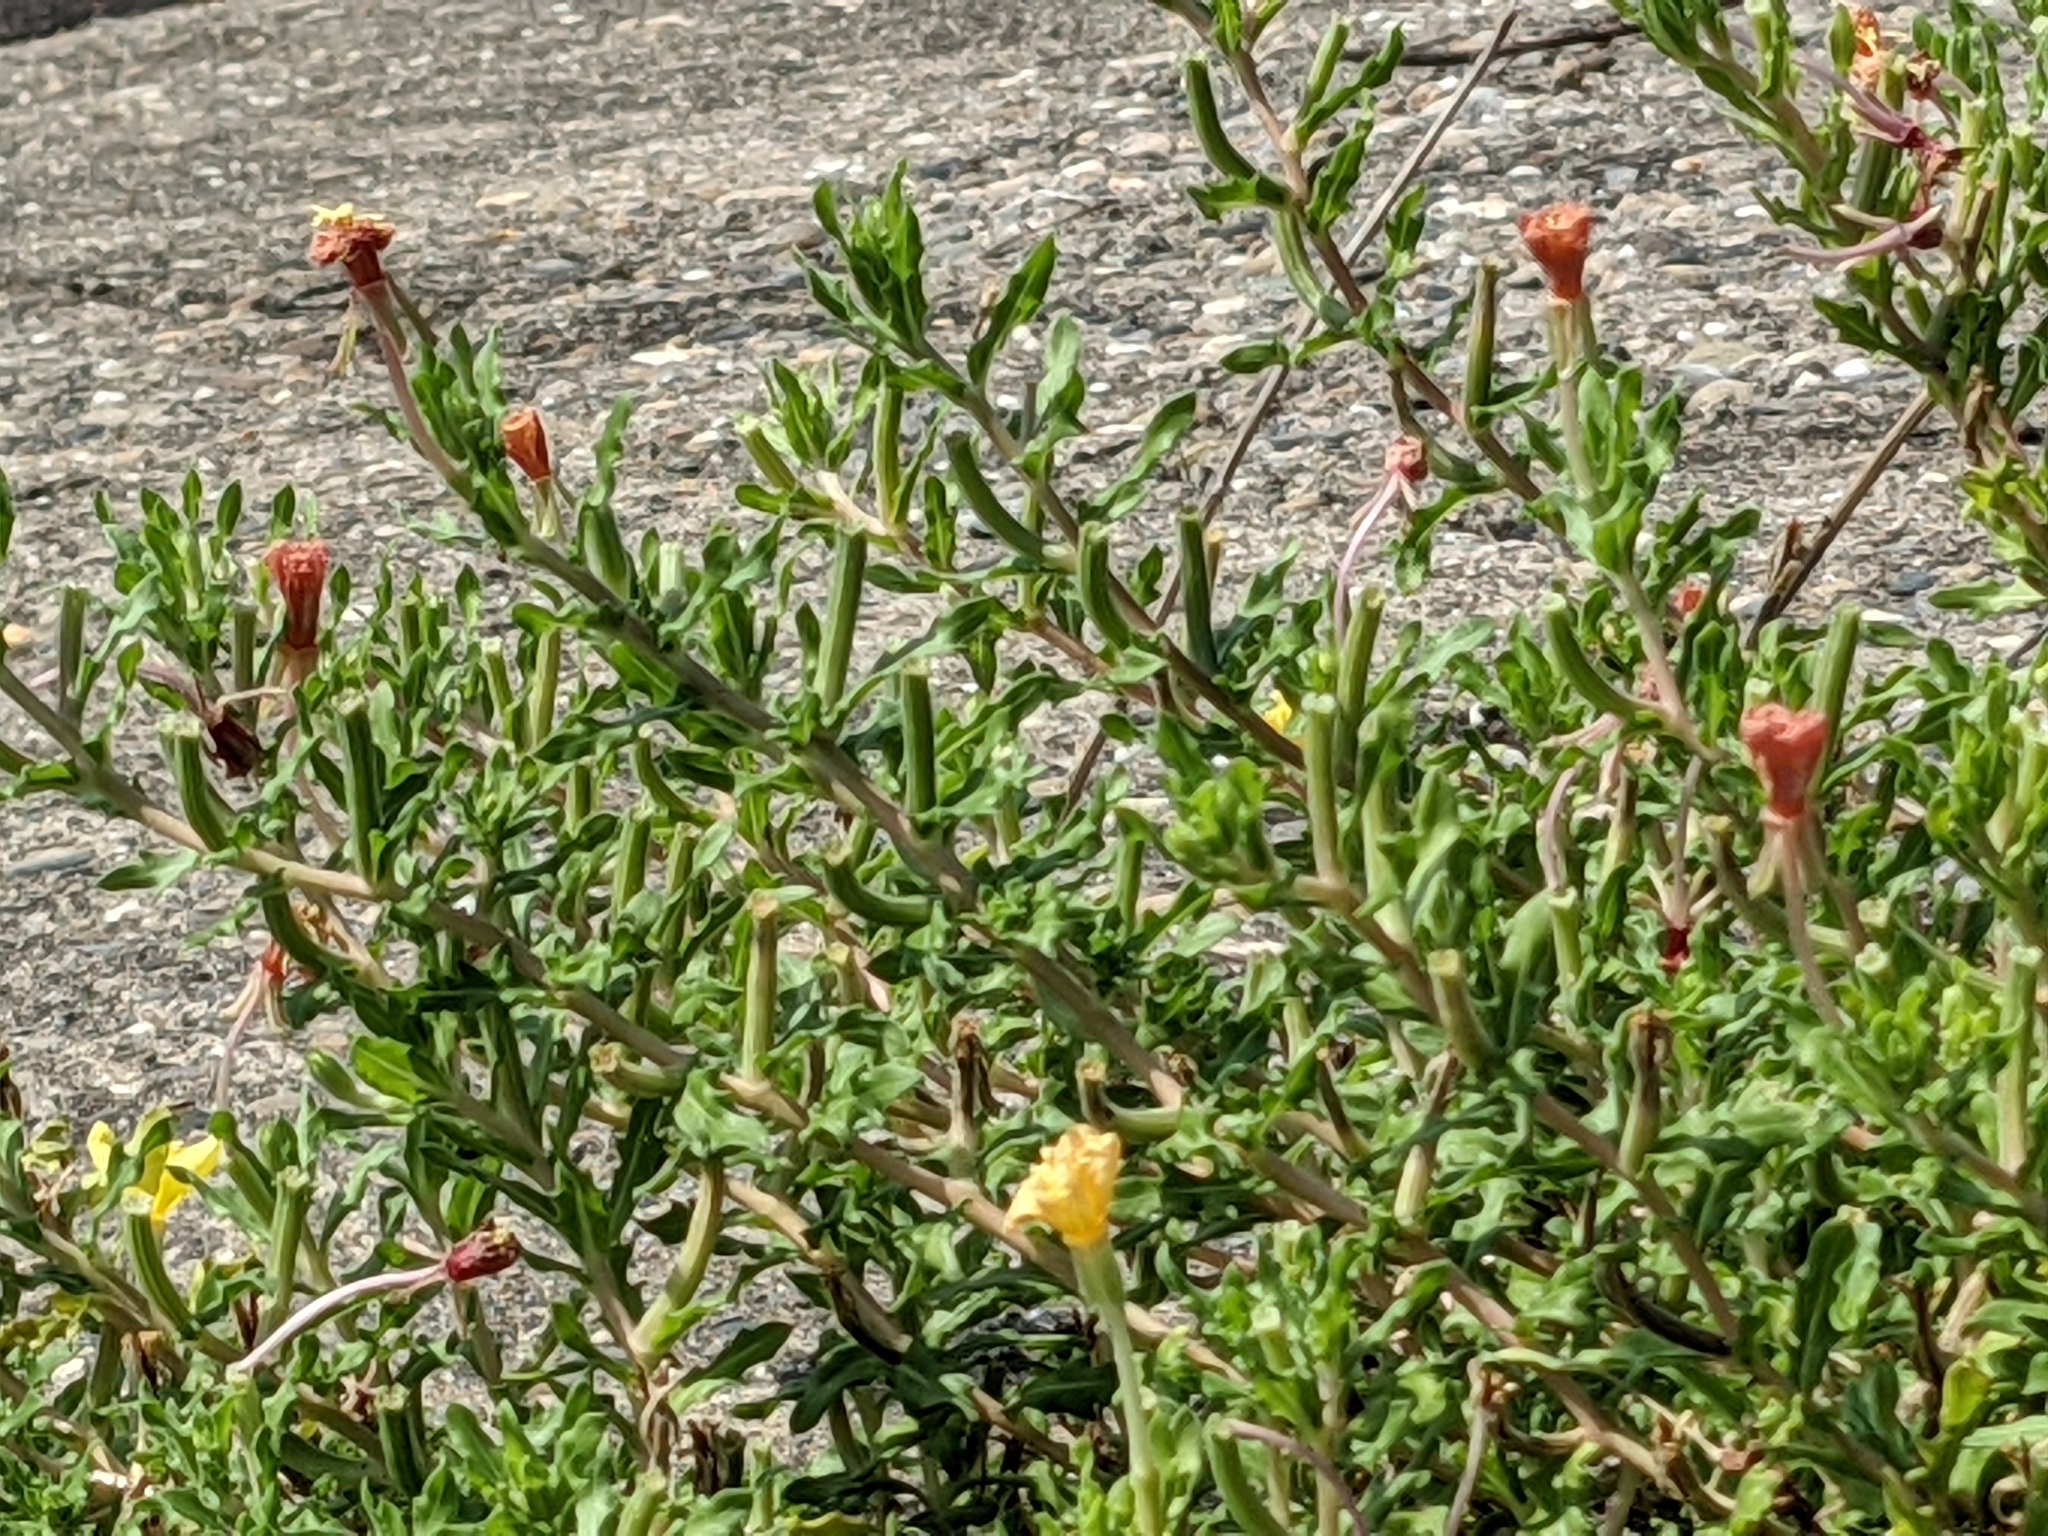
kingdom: Plantae
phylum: Tracheophyta
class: Magnoliopsida
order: Myrtales
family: Onagraceae
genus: Oenothera
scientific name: Oenothera laciniata
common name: Cut-leaved evening-primrose
